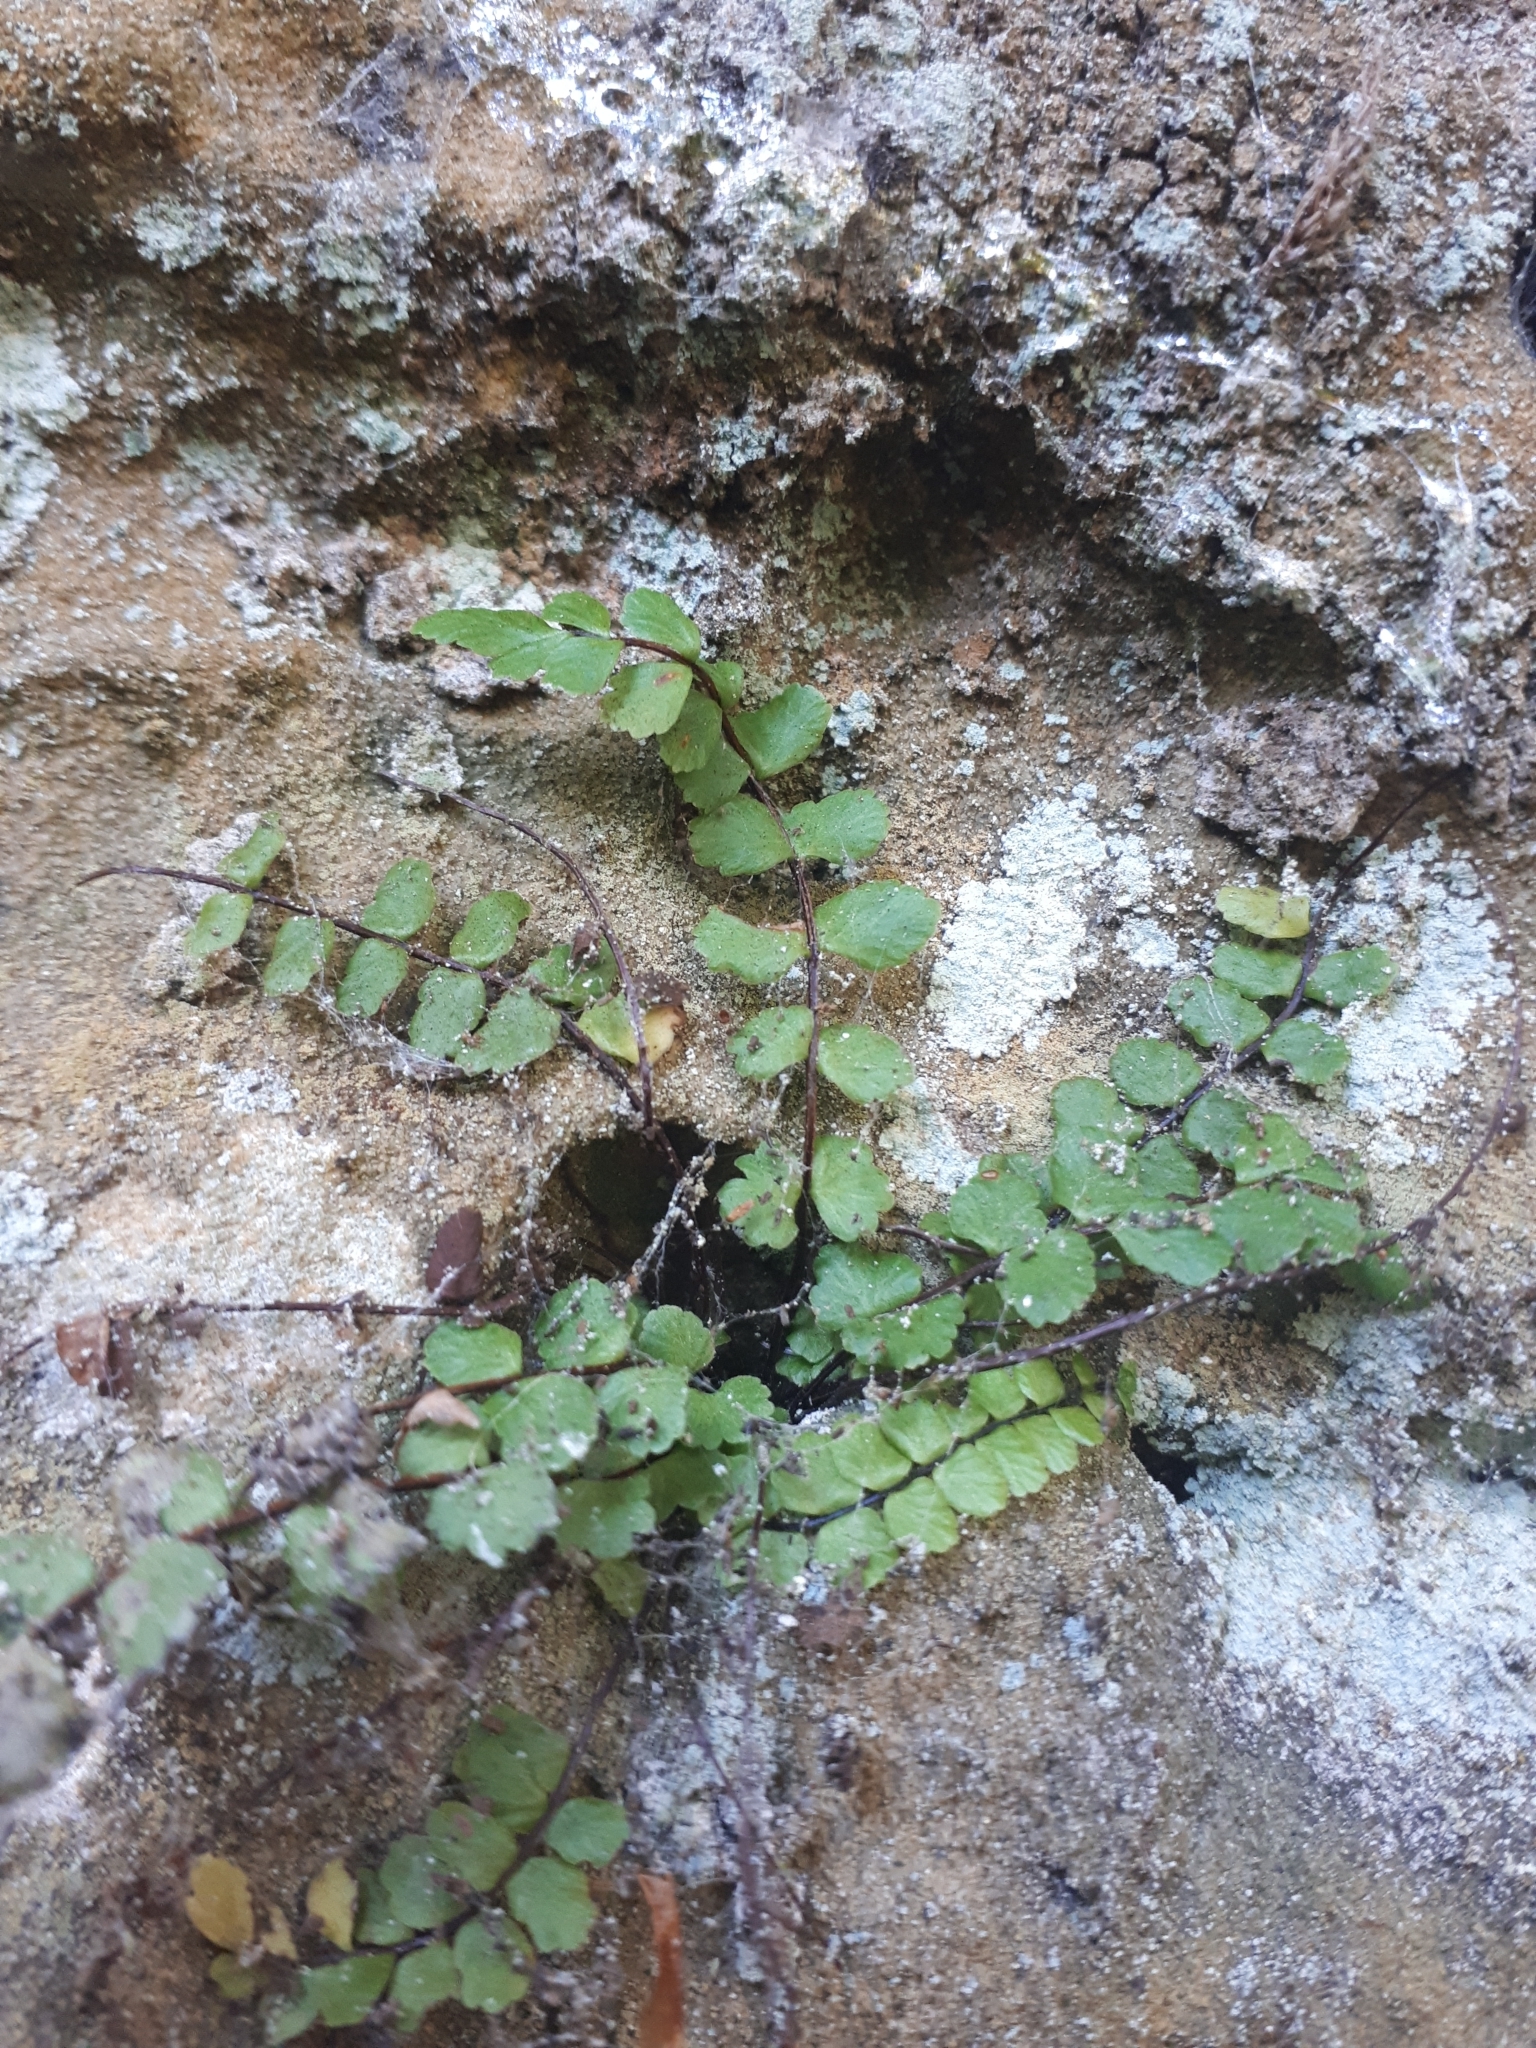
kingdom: Plantae
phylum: Tracheophyta
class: Polypodiopsida
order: Polypodiales
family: Aspleniaceae
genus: Asplenium
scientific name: Asplenium trichomanes
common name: Maidenhair spleenwort
